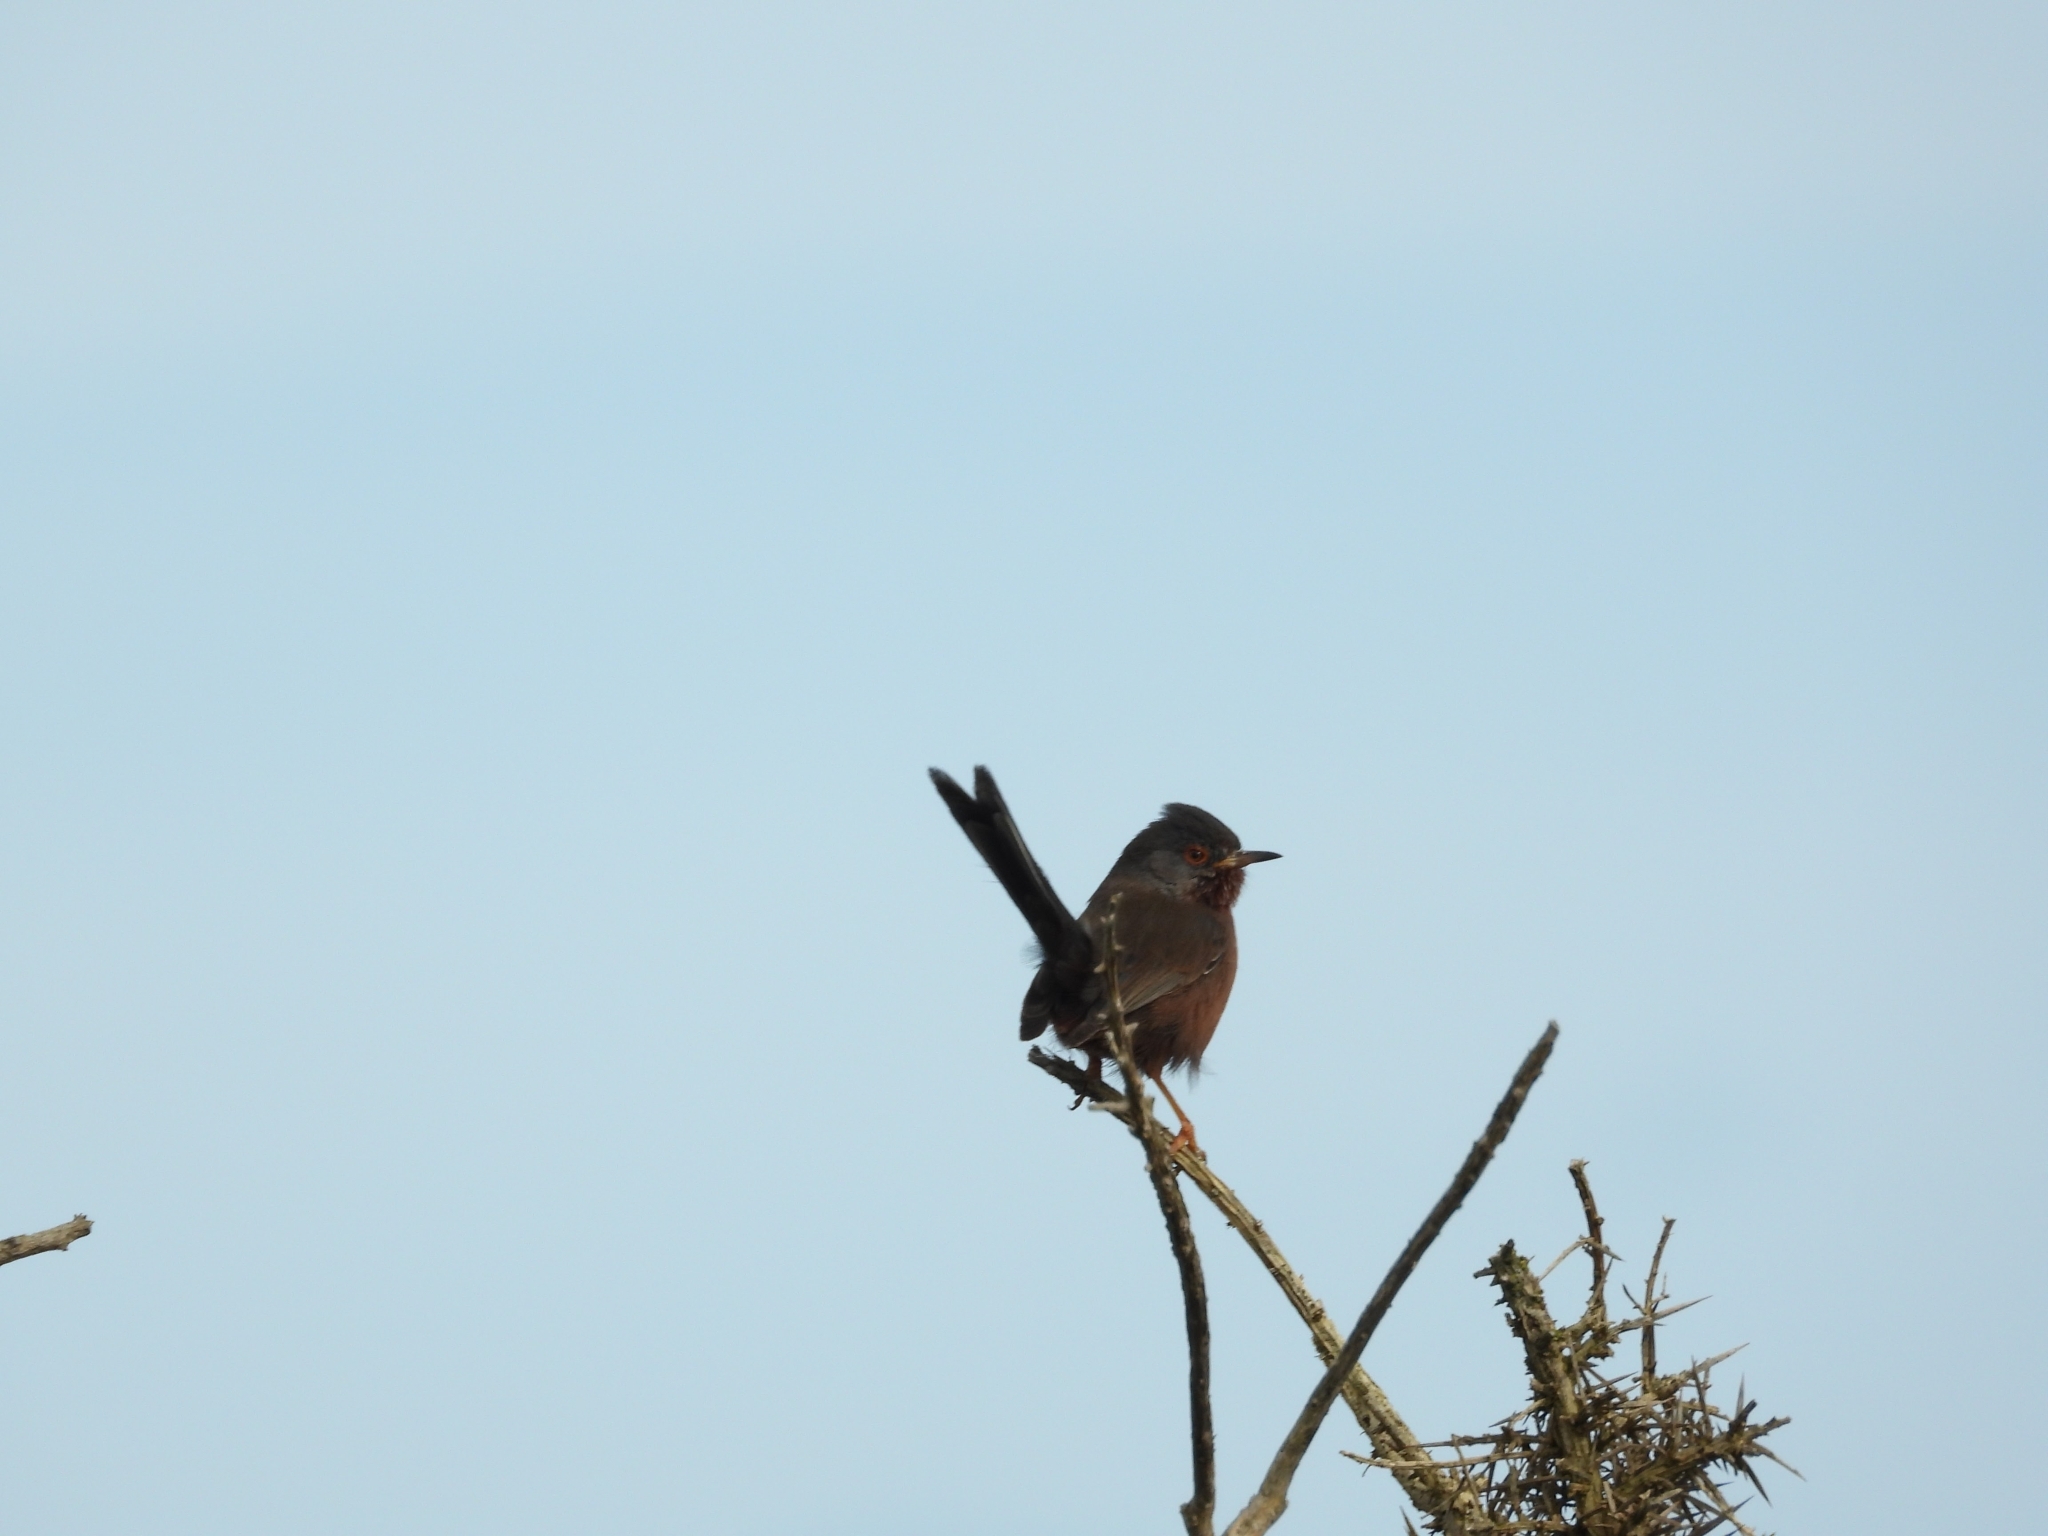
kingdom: Animalia
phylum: Chordata
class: Aves
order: Passeriformes
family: Sylviidae
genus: Sylvia
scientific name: Sylvia undata
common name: Dartford warbler
